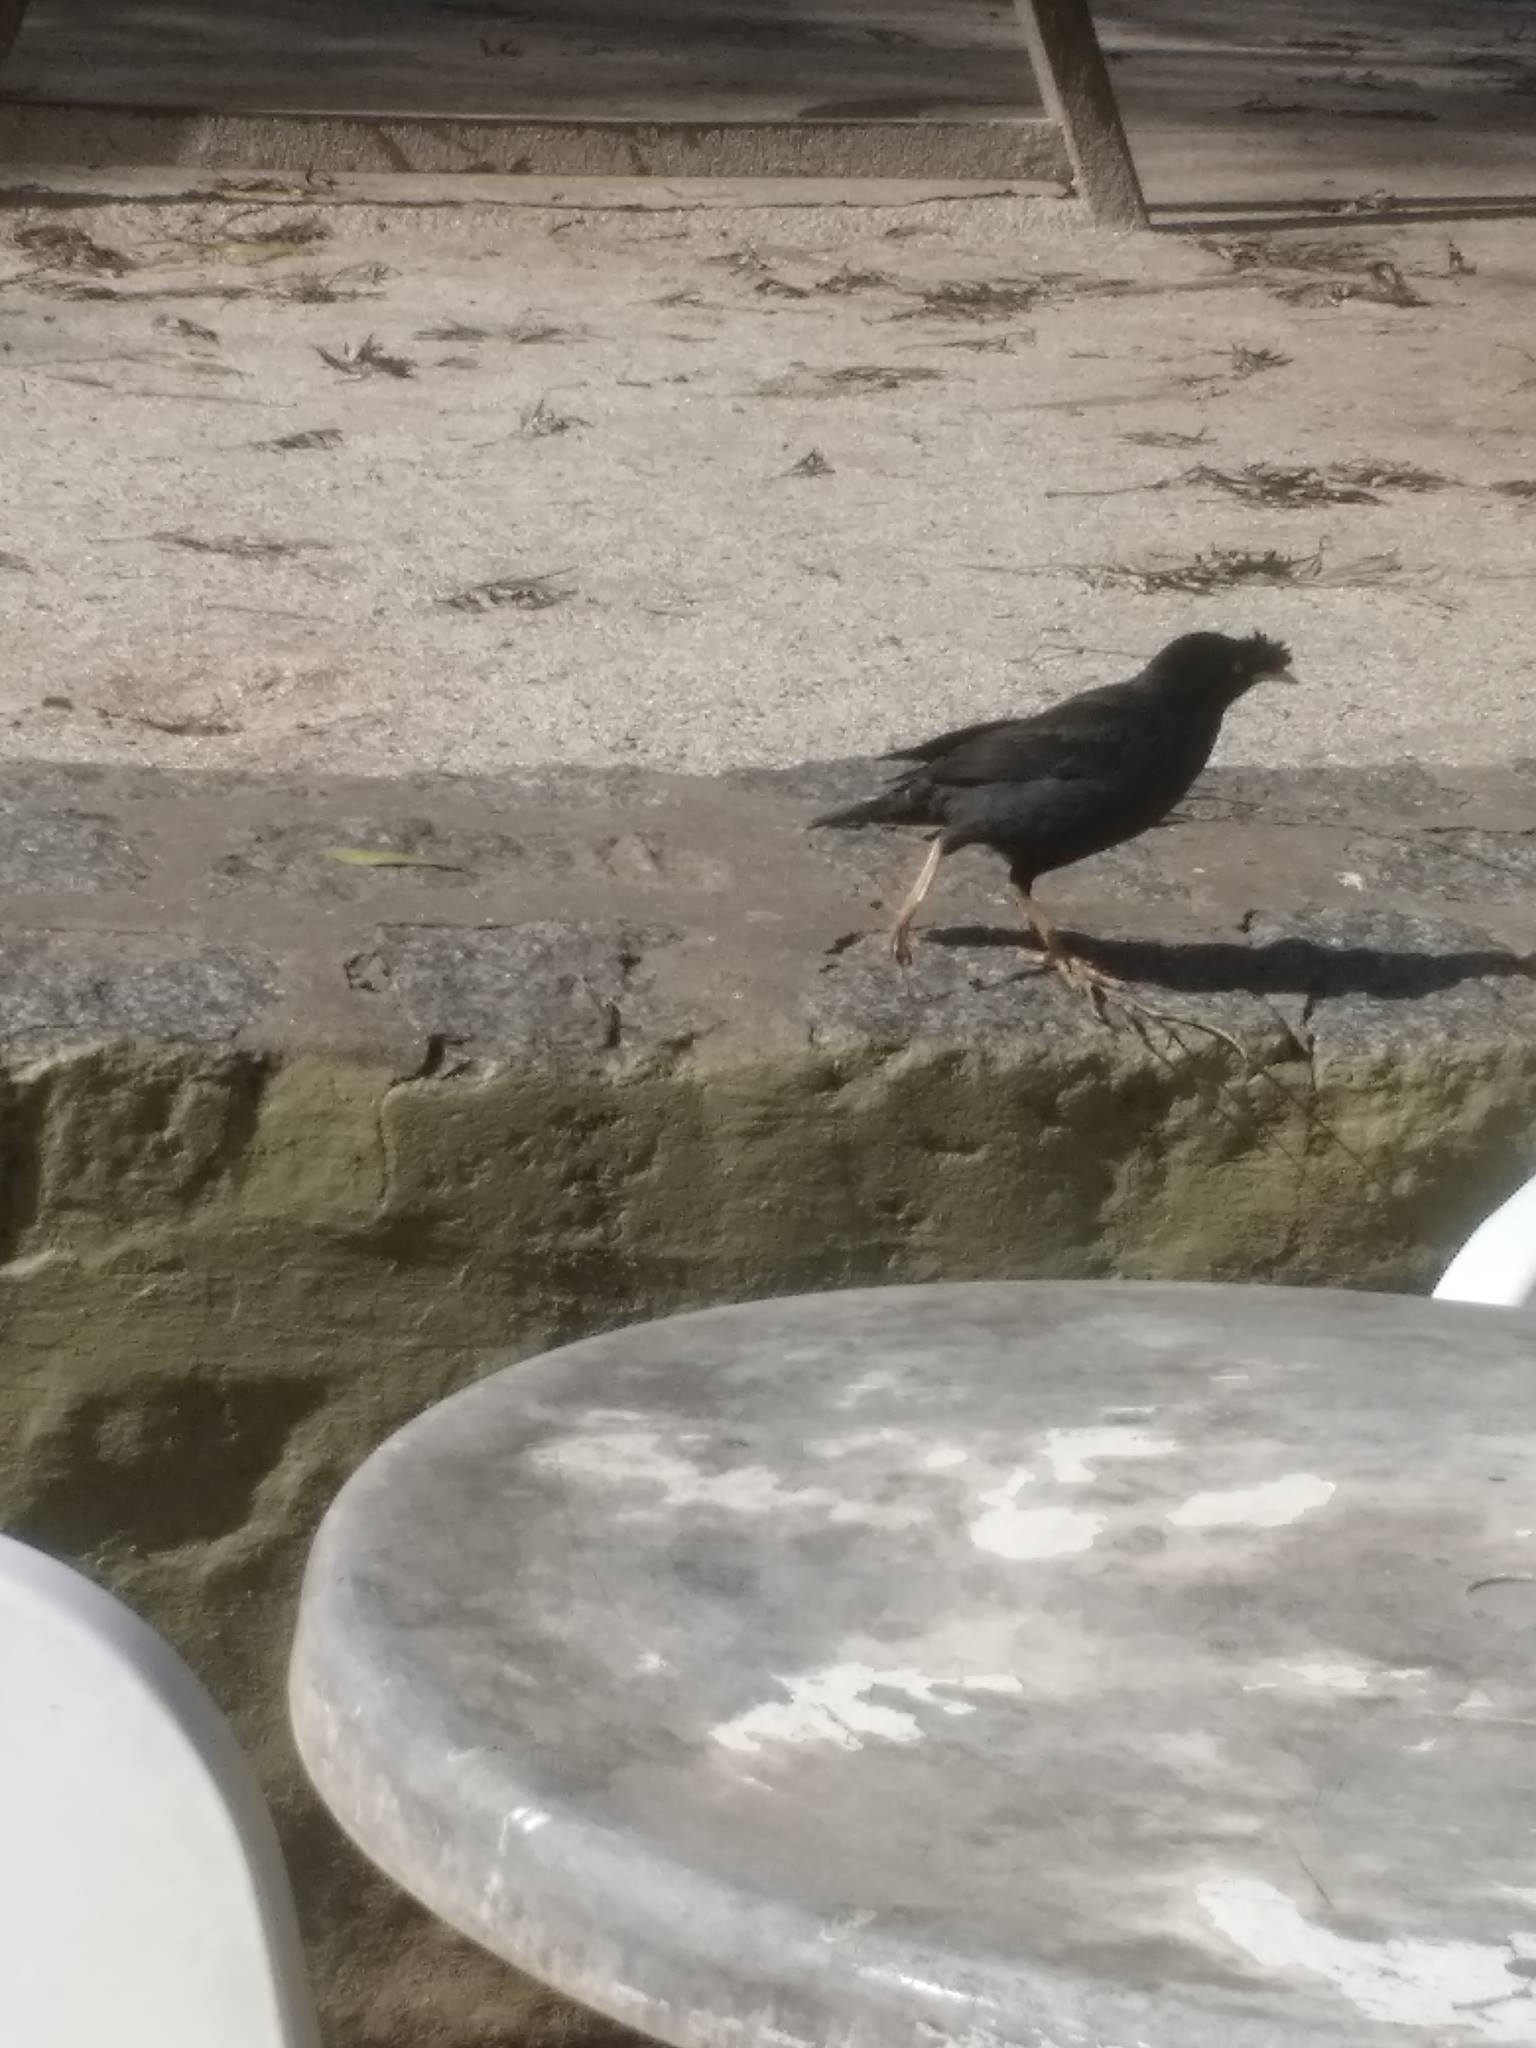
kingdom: Animalia
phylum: Chordata
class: Aves
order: Passeriformes
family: Sturnidae
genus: Acridotheres
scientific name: Acridotheres cristatellus
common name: Crested myna
